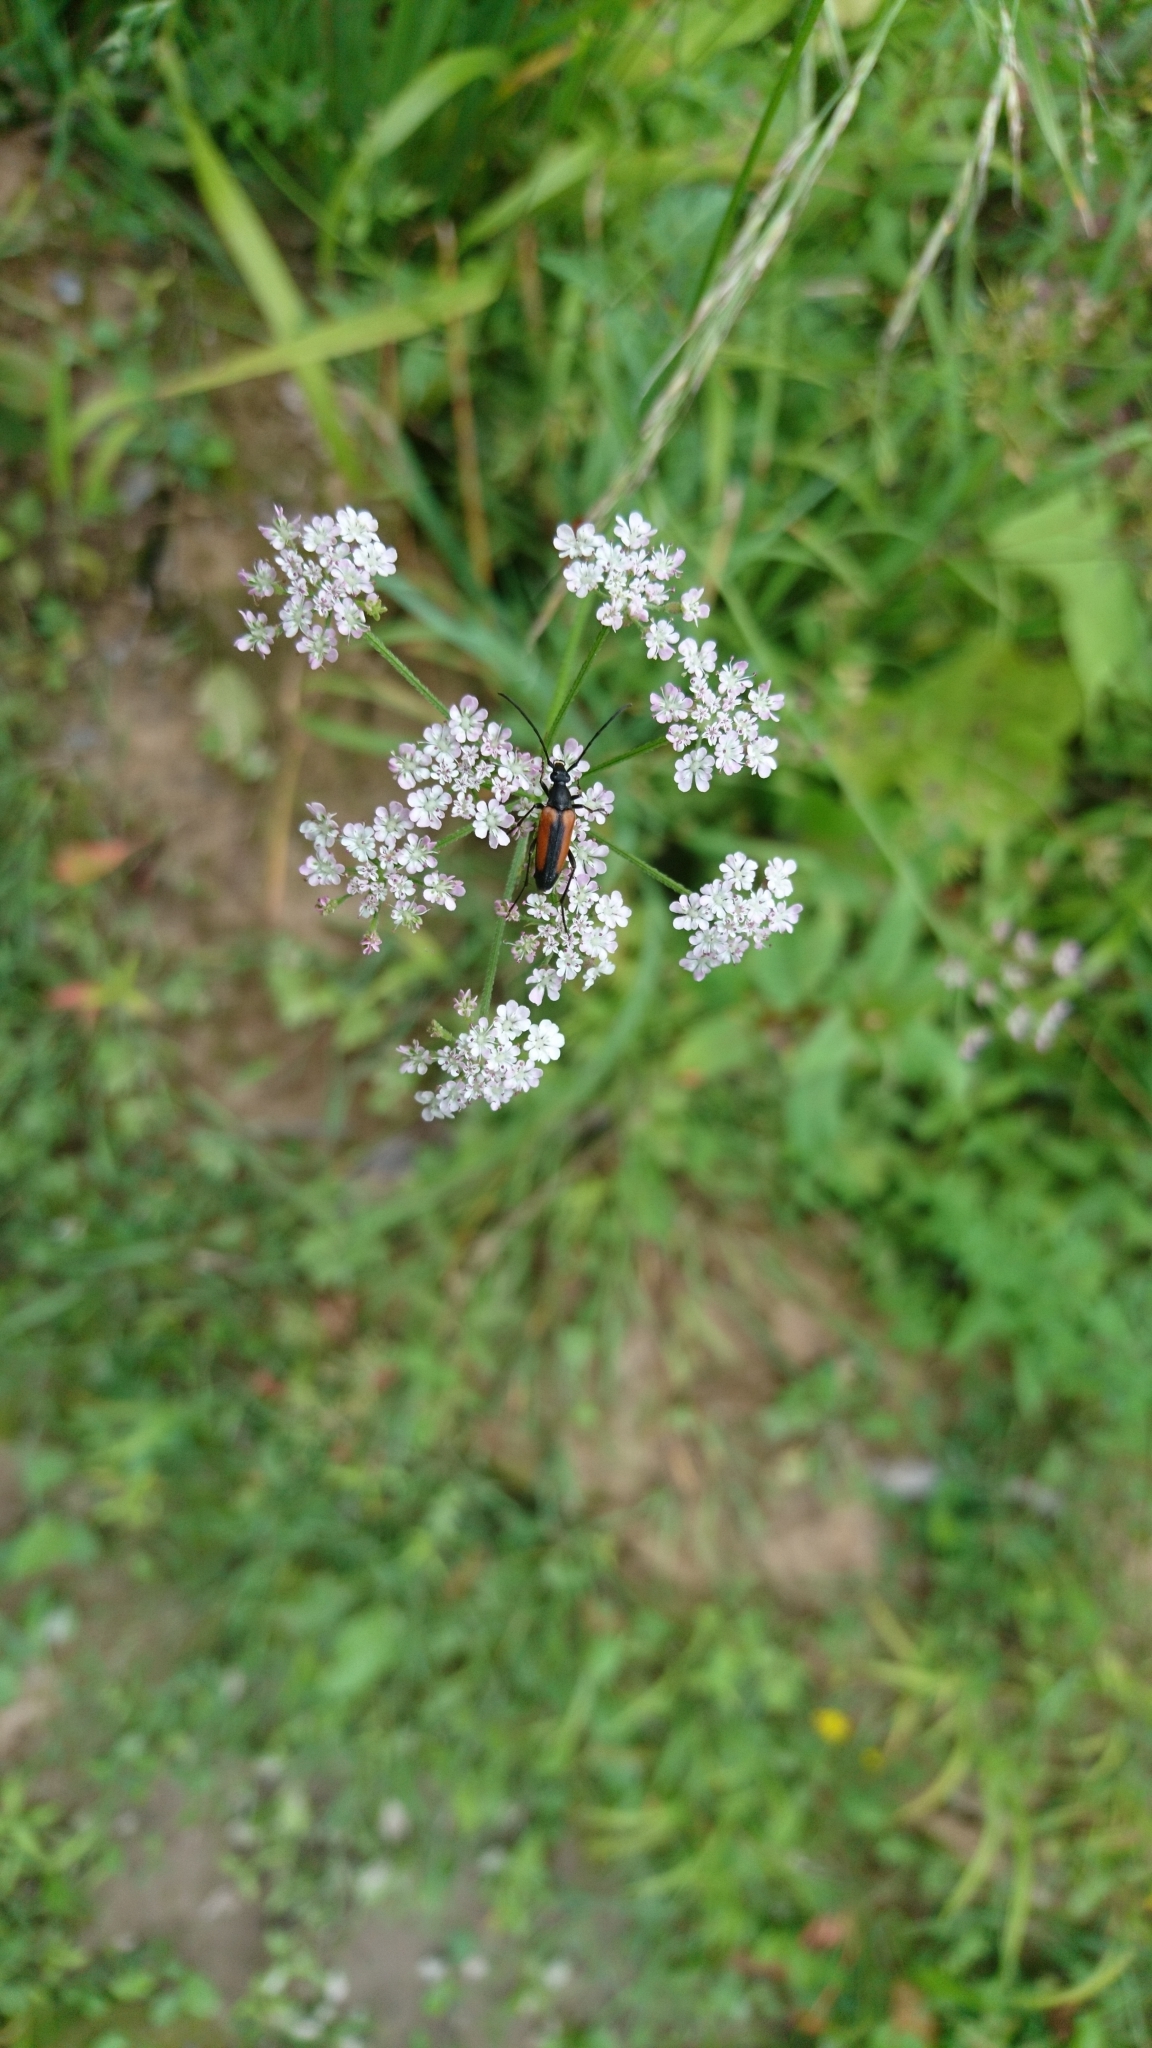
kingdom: Animalia
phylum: Arthropoda
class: Insecta
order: Coleoptera
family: Cerambycidae
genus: Stenurella
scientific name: Stenurella melanura
